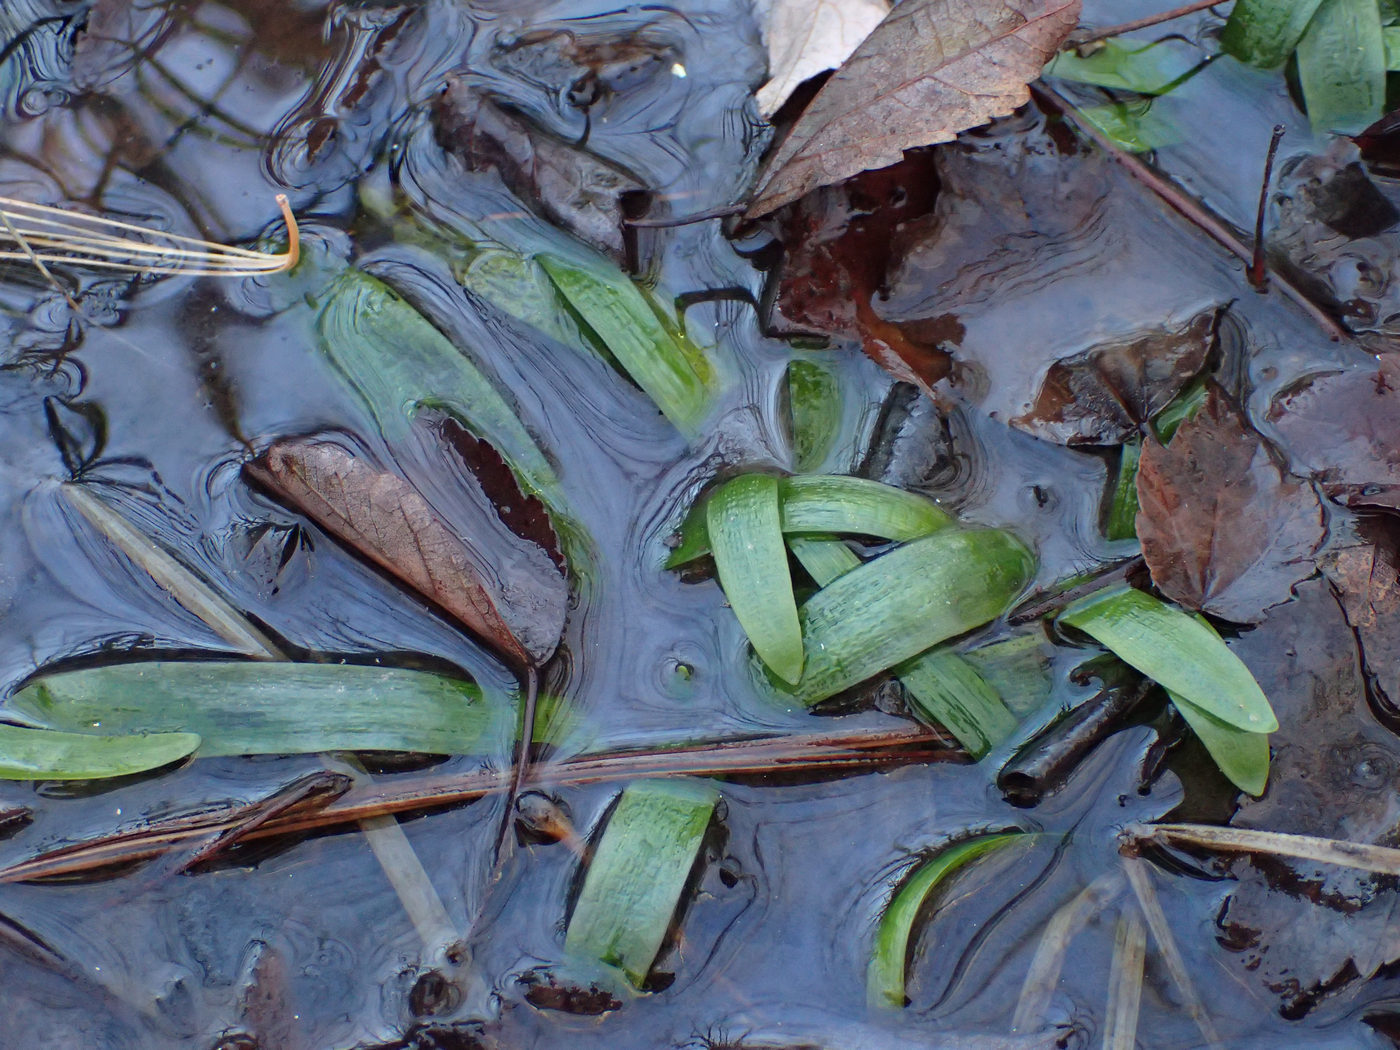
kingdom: Plantae
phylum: Tracheophyta
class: Liliopsida
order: Alismatales
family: Alismataceae
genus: Sagittaria
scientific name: Sagittaria fasciculata
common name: Bunched arrowhead
